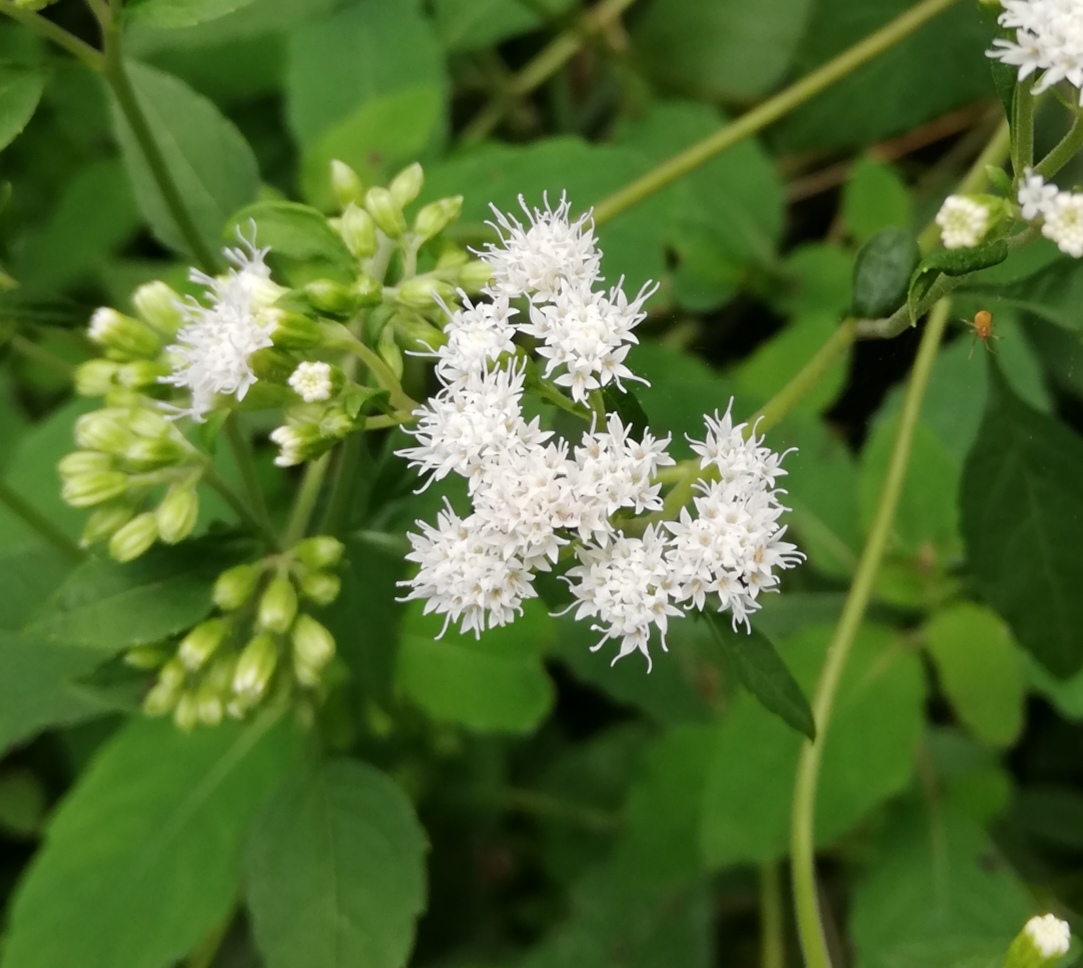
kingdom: Plantae
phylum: Tracheophyta
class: Magnoliopsida
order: Asterales
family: Asteraceae
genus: Ageratina
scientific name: Ageratina altissima
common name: White snakeroot
